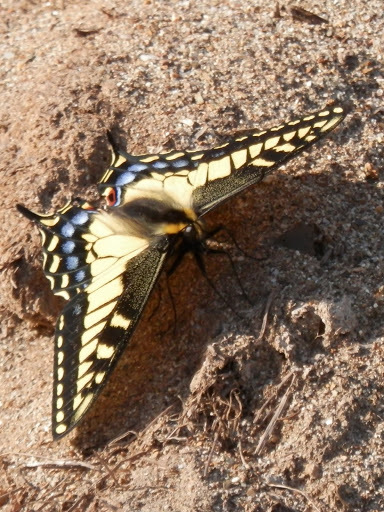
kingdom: Animalia
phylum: Arthropoda
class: Insecta
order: Lepidoptera
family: Papilionidae
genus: Papilio
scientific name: Papilio zelicaon
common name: Anise swallowtail
